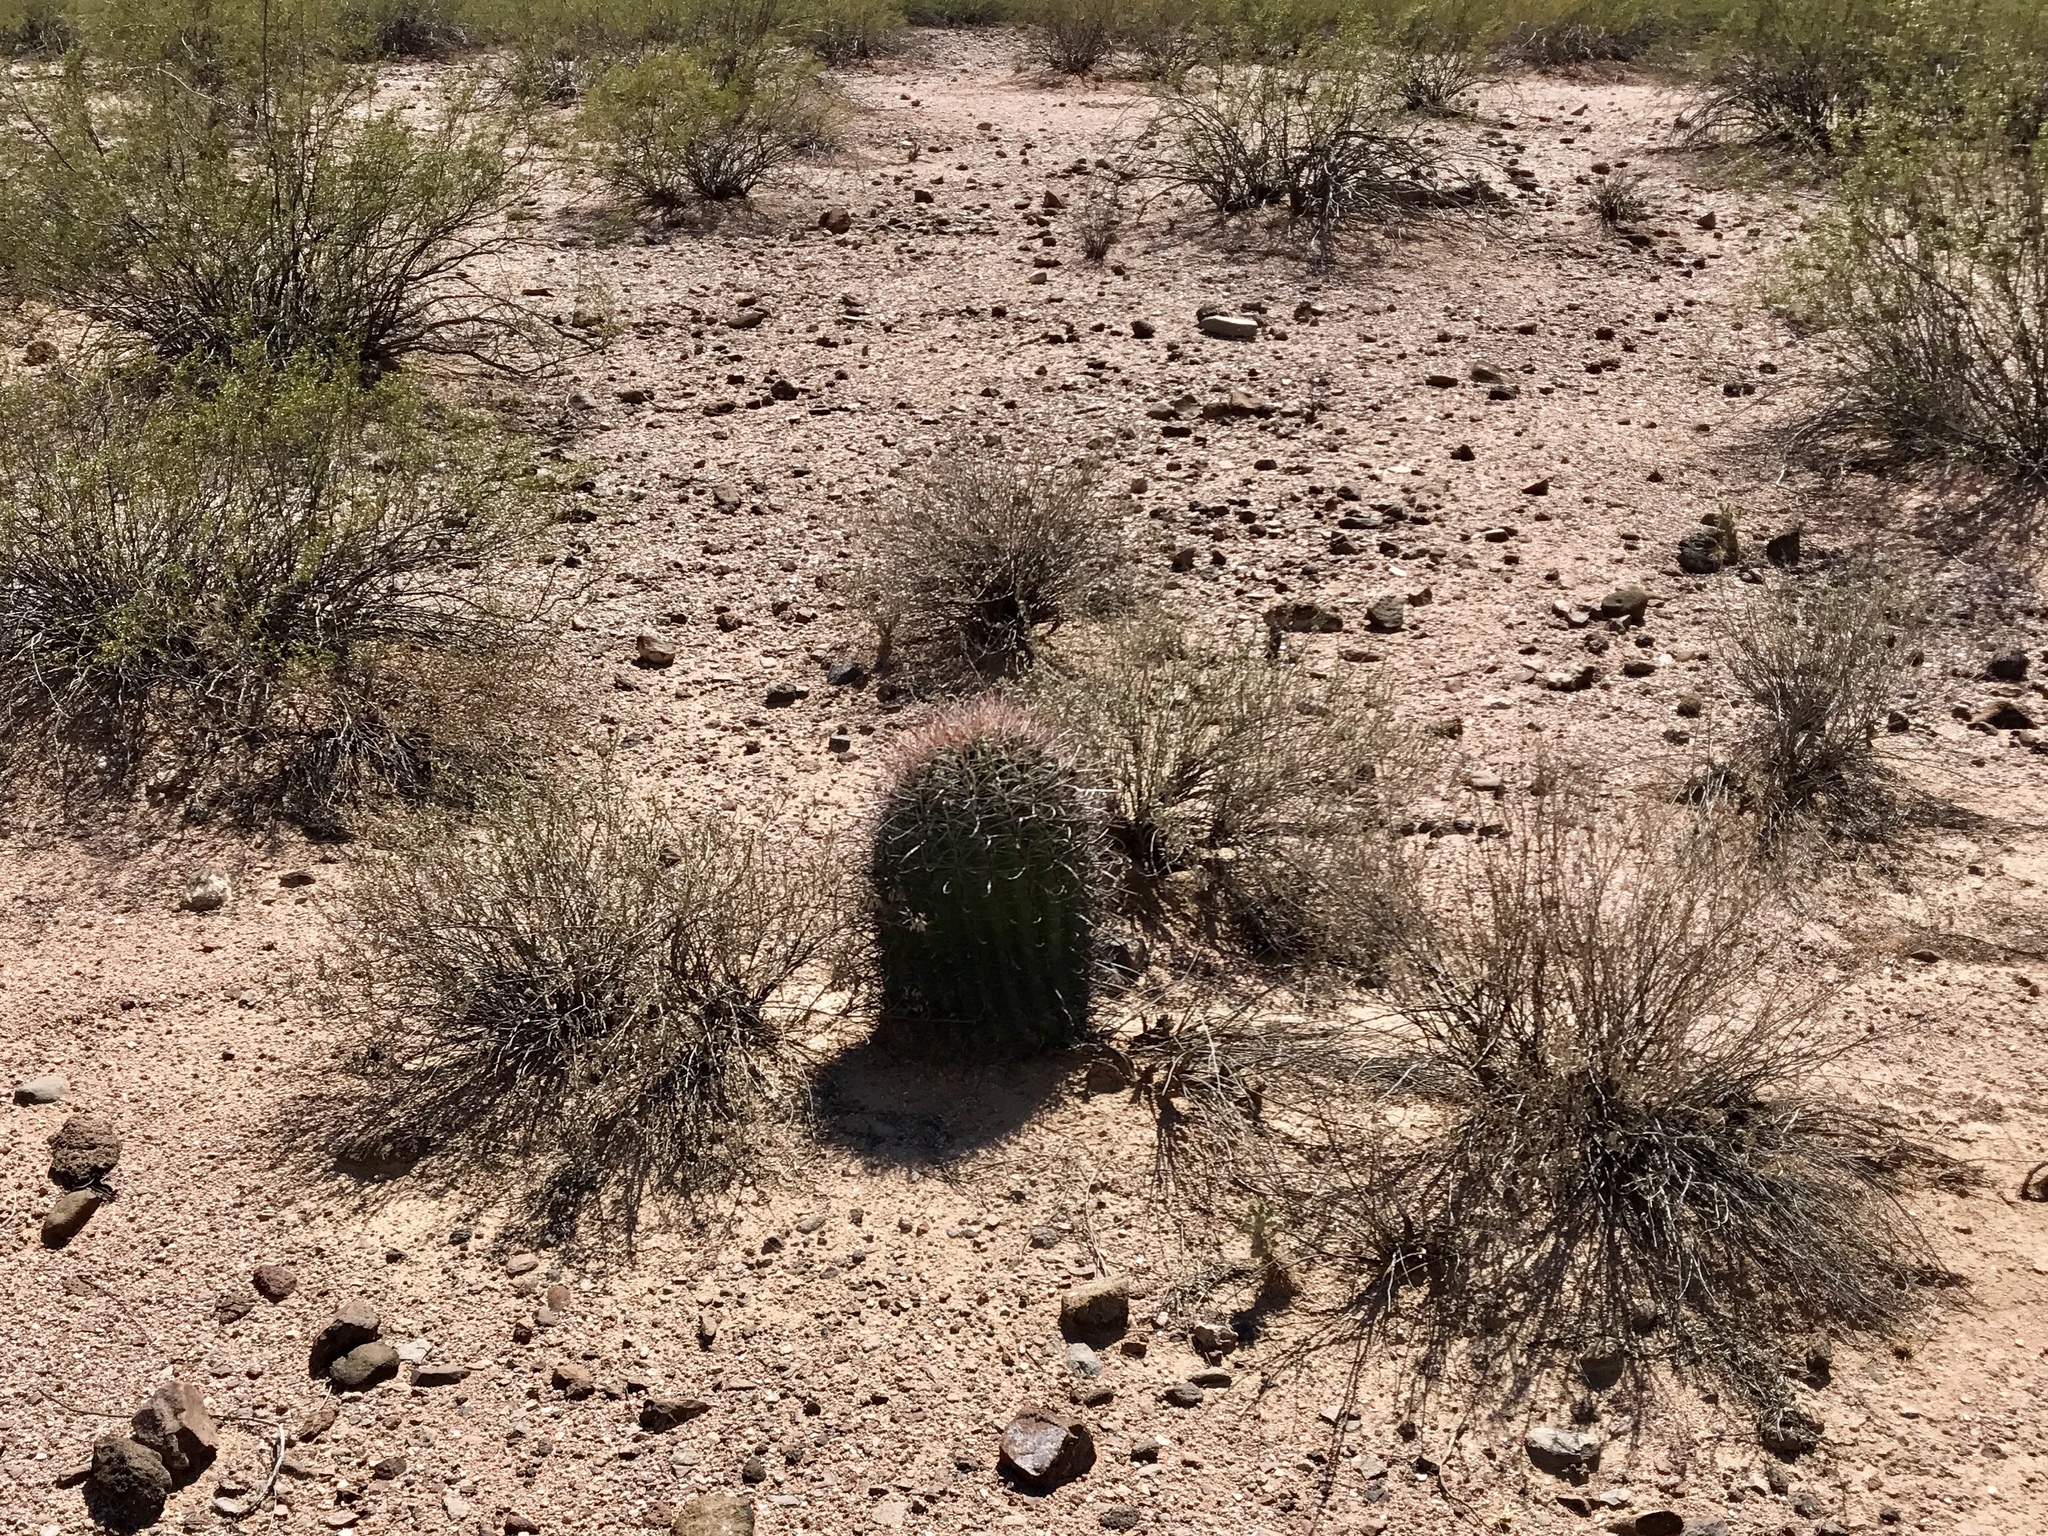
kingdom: Plantae
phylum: Tracheophyta
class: Magnoliopsida
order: Caryophyllales
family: Cactaceae
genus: Ferocactus
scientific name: Ferocactus wislizeni
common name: Candy barrel cactus
